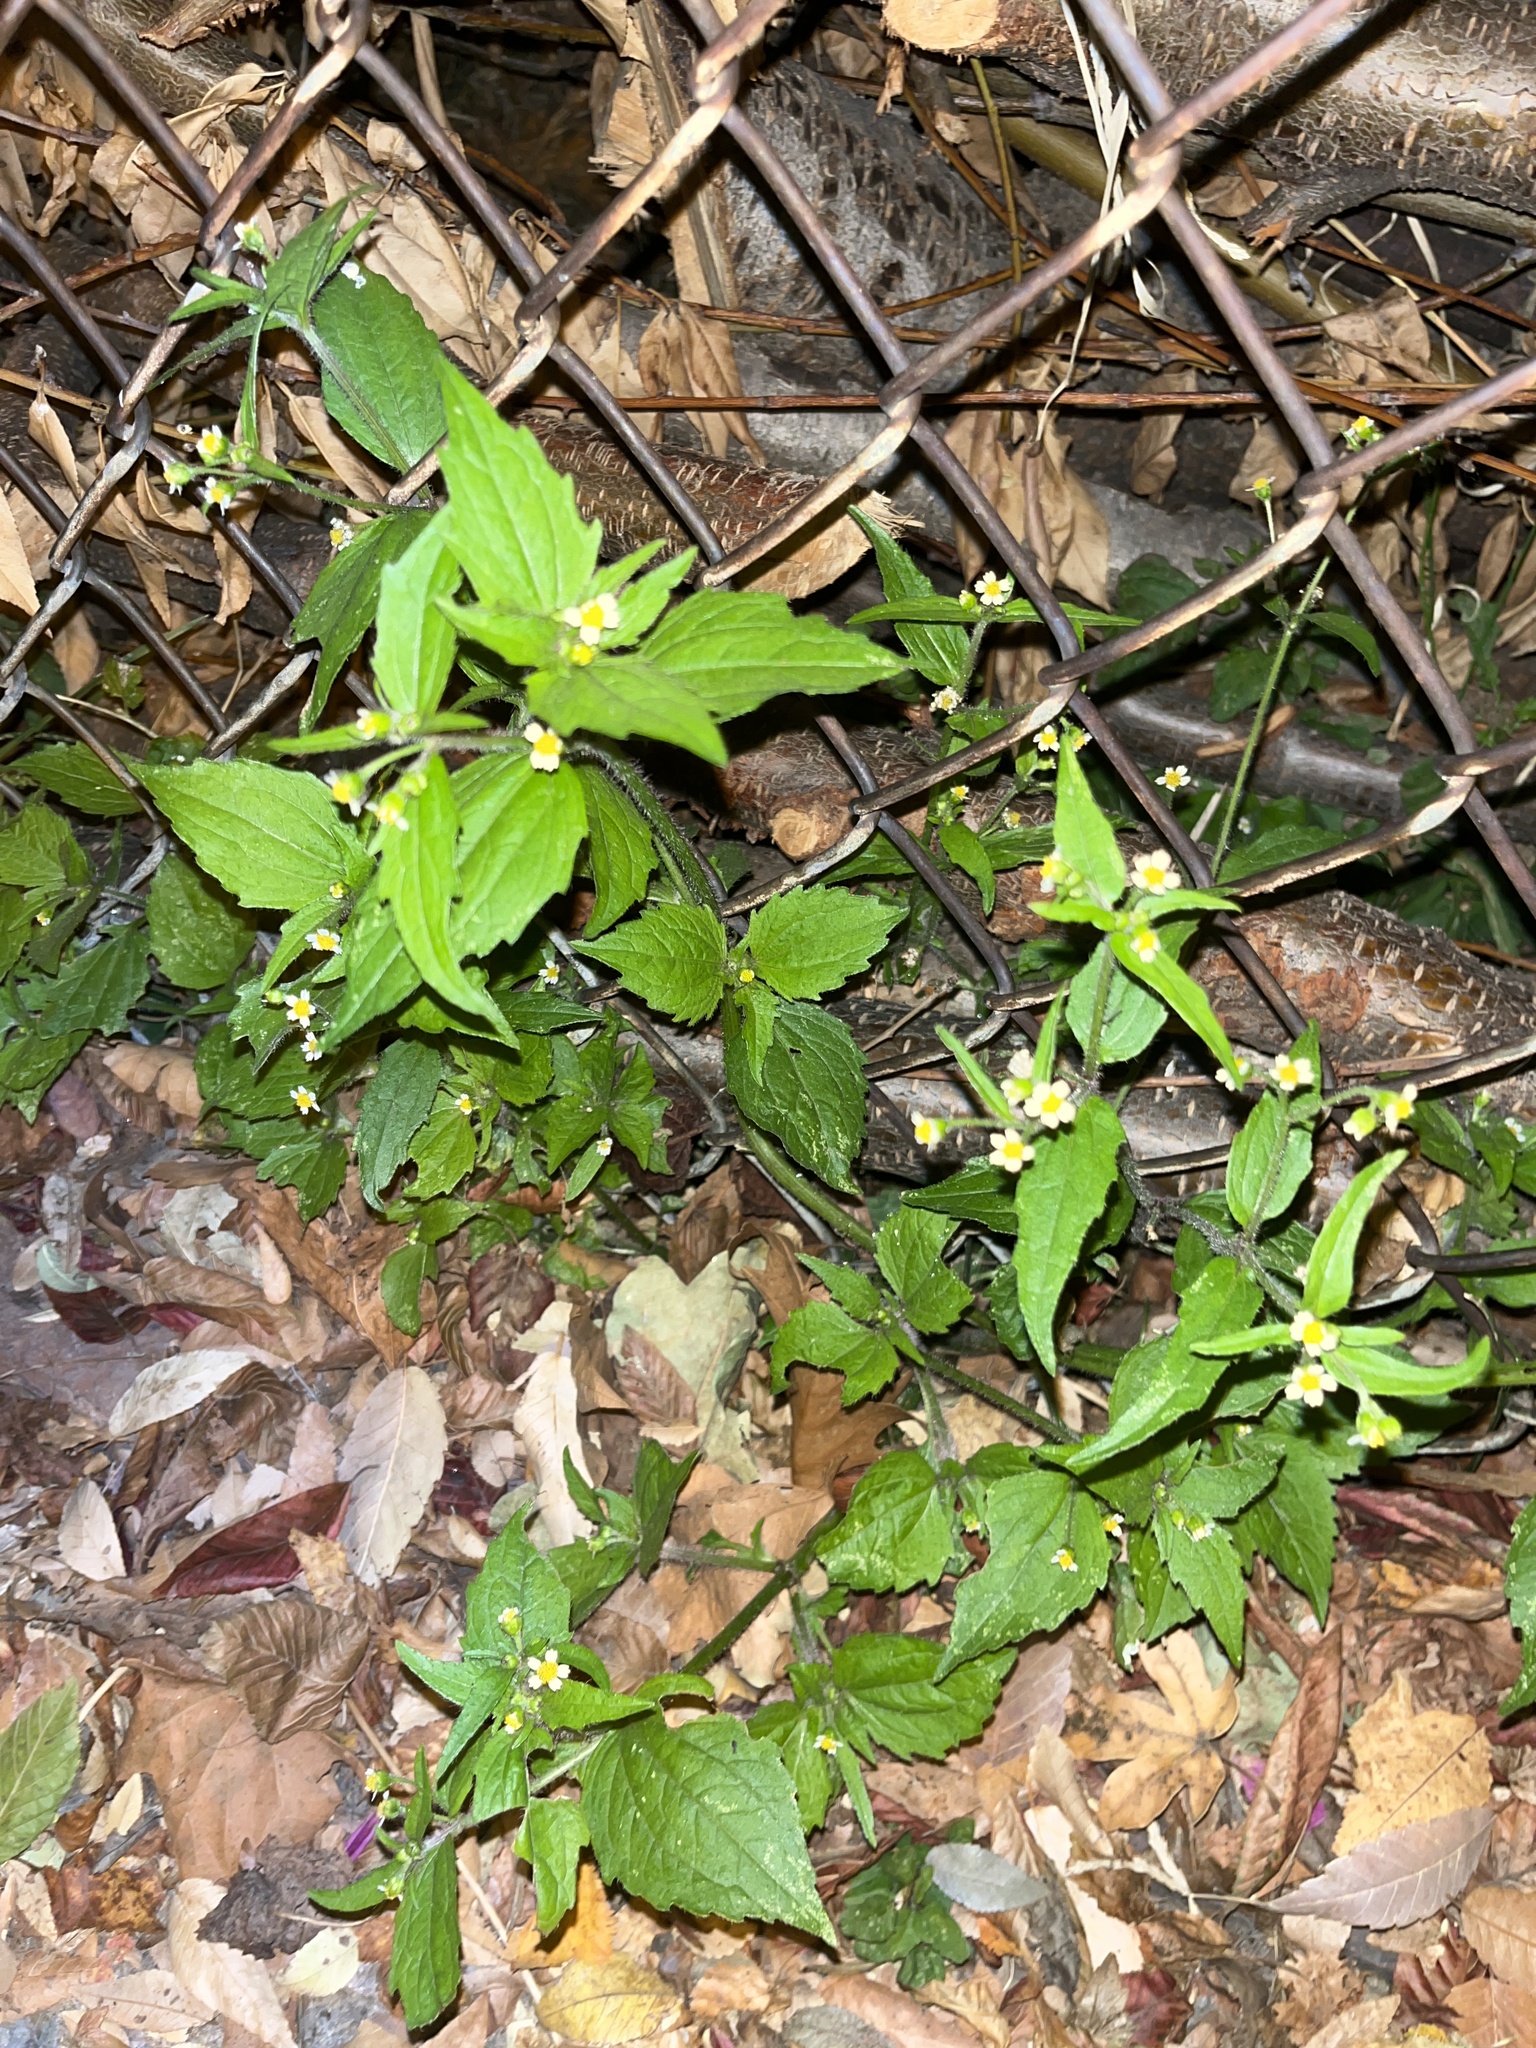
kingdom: Plantae
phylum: Tracheophyta
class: Magnoliopsida
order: Asterales
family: Asteraceae
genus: Galinsoga
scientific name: Galinsoga quadriradiata
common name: Shaggy soldier
